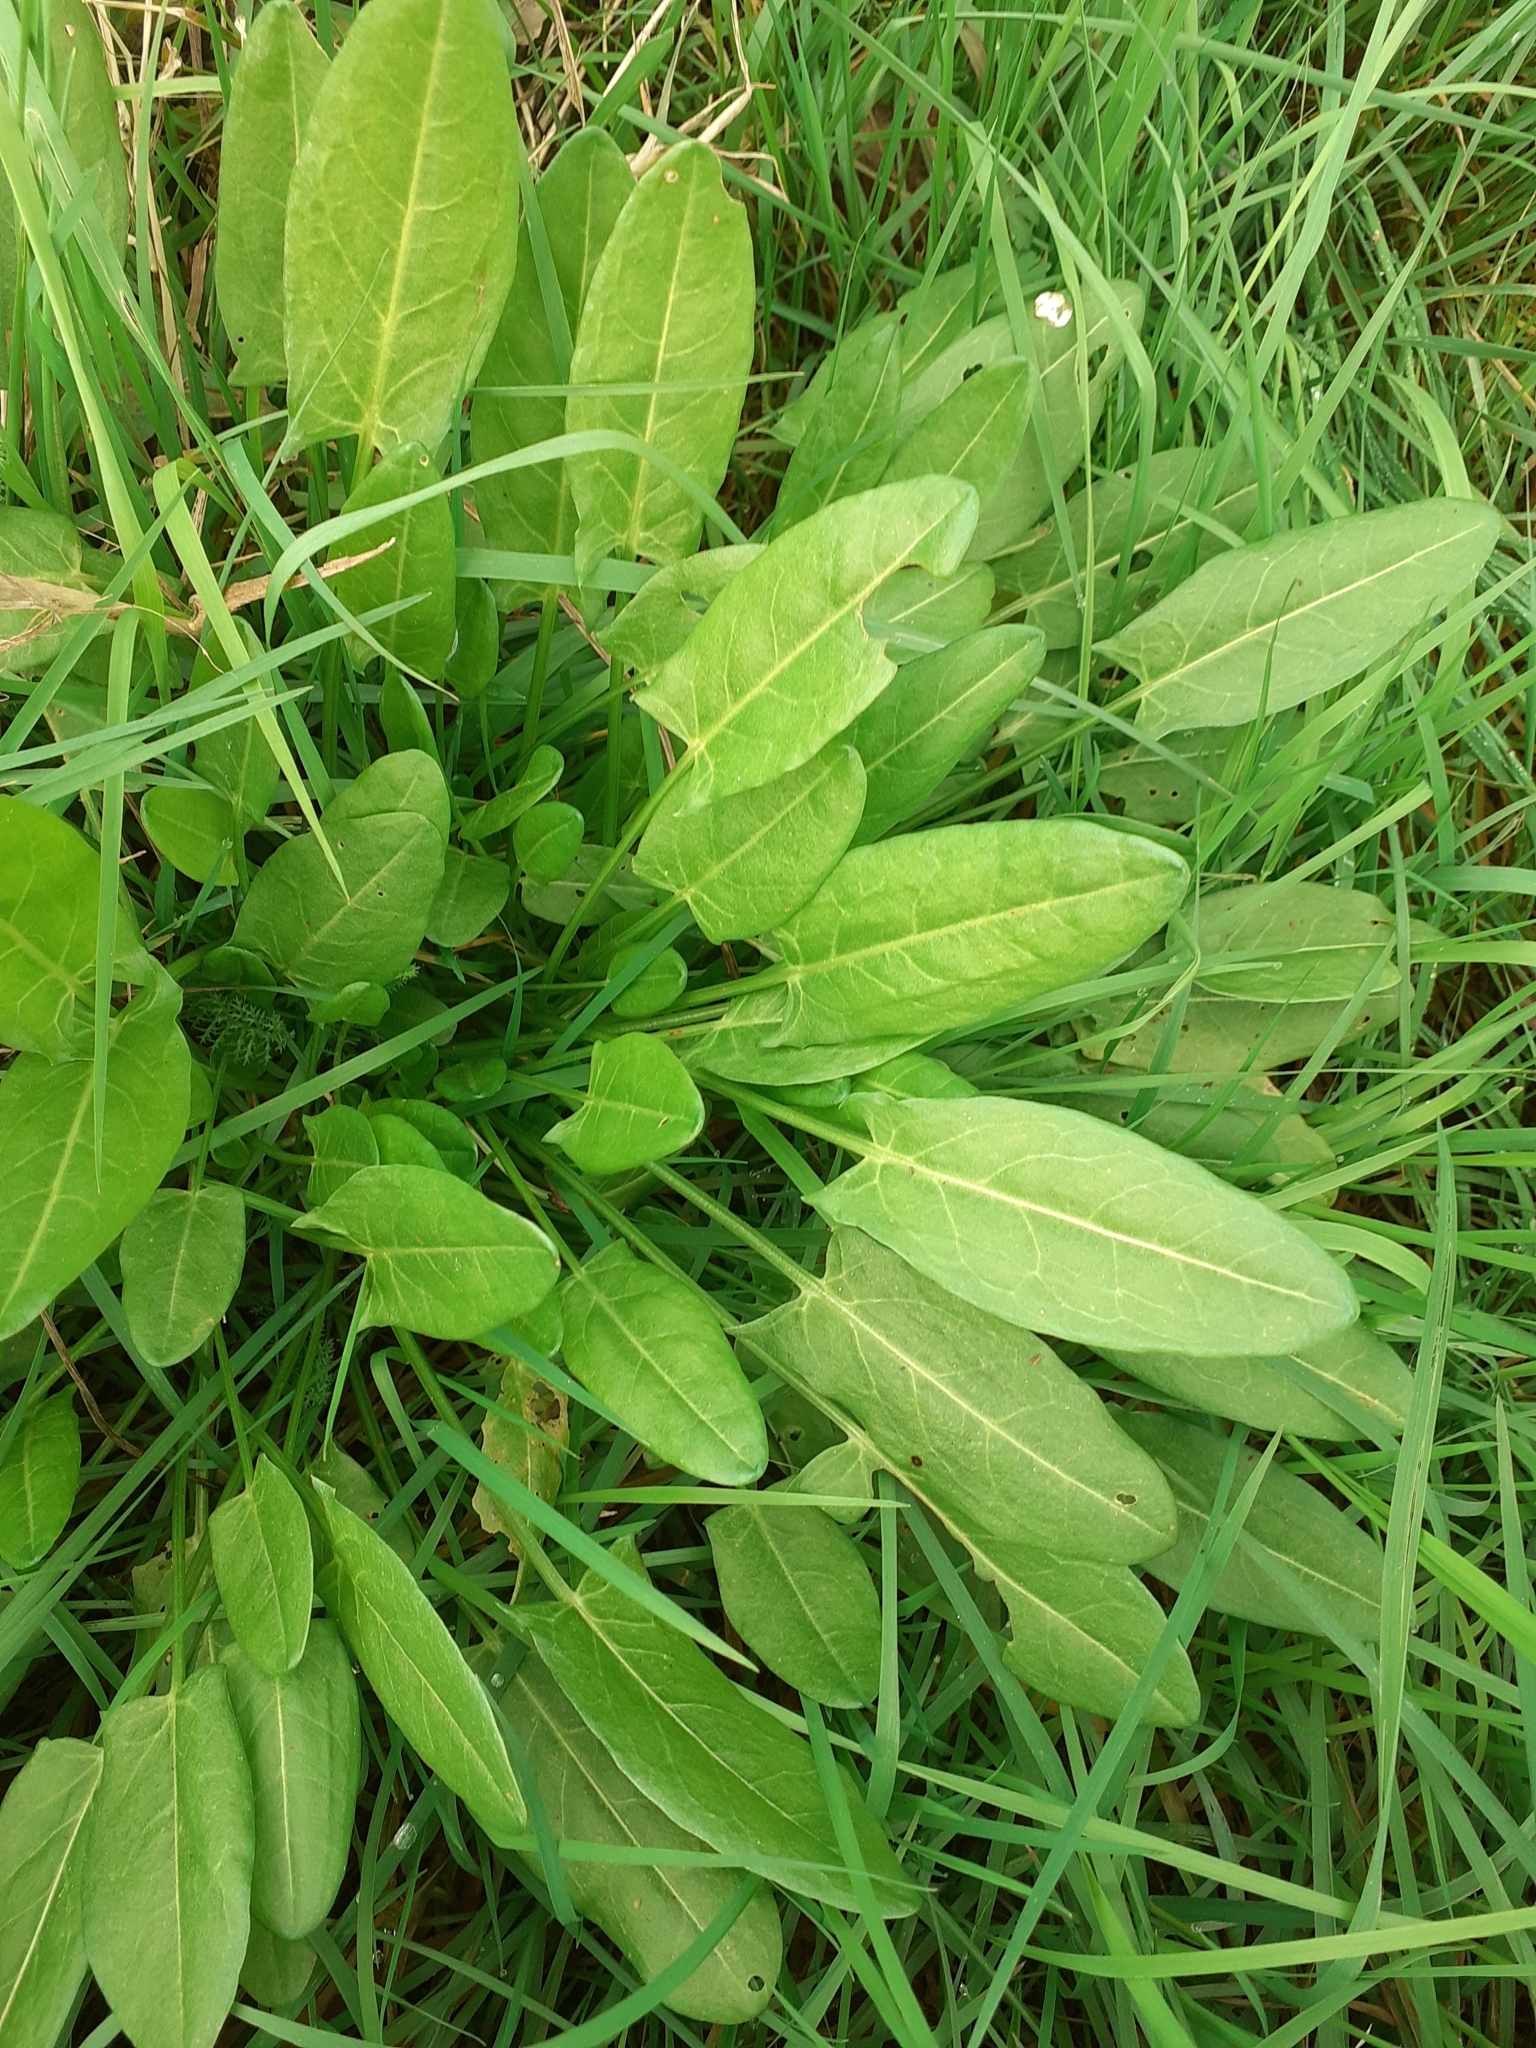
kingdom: Plantae
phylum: Tracheophyta
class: Magnoliopsida
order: Caryophyllales
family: Polygonaceae
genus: Rumex
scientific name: Rumex acetosa
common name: Garden sorrel
